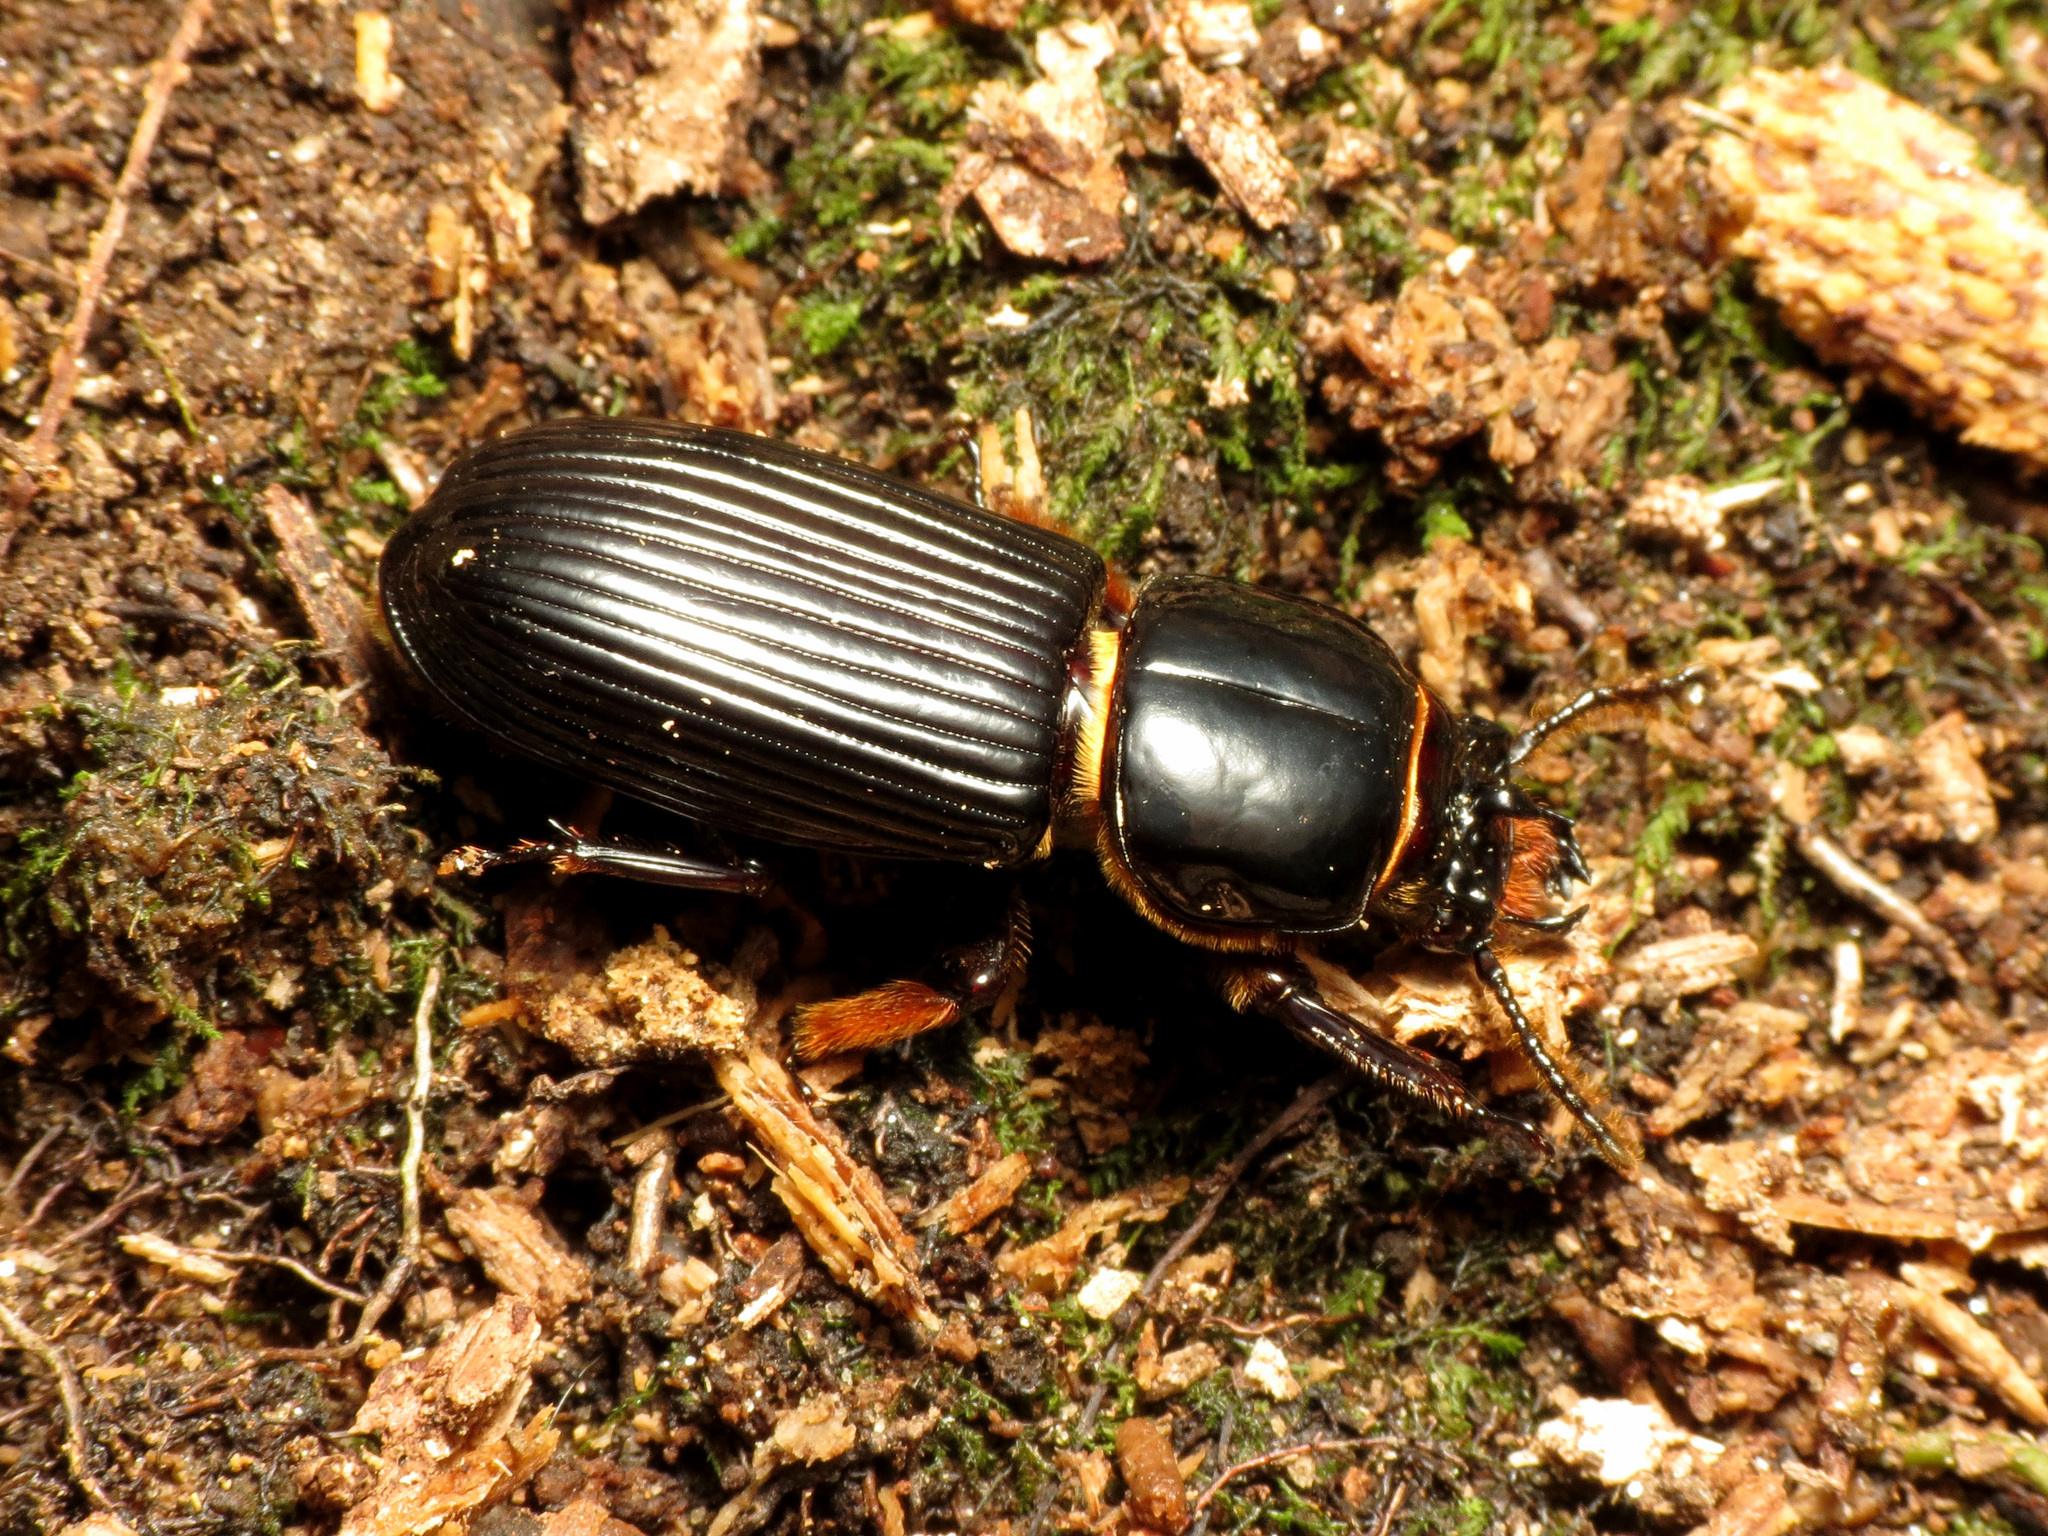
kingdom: Animalia
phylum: Arthropoda
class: Insecta
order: Coleoptera
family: Passalidae
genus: Odontotaenius
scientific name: Odontotaenius disjunctus
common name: Patent leather beetle
